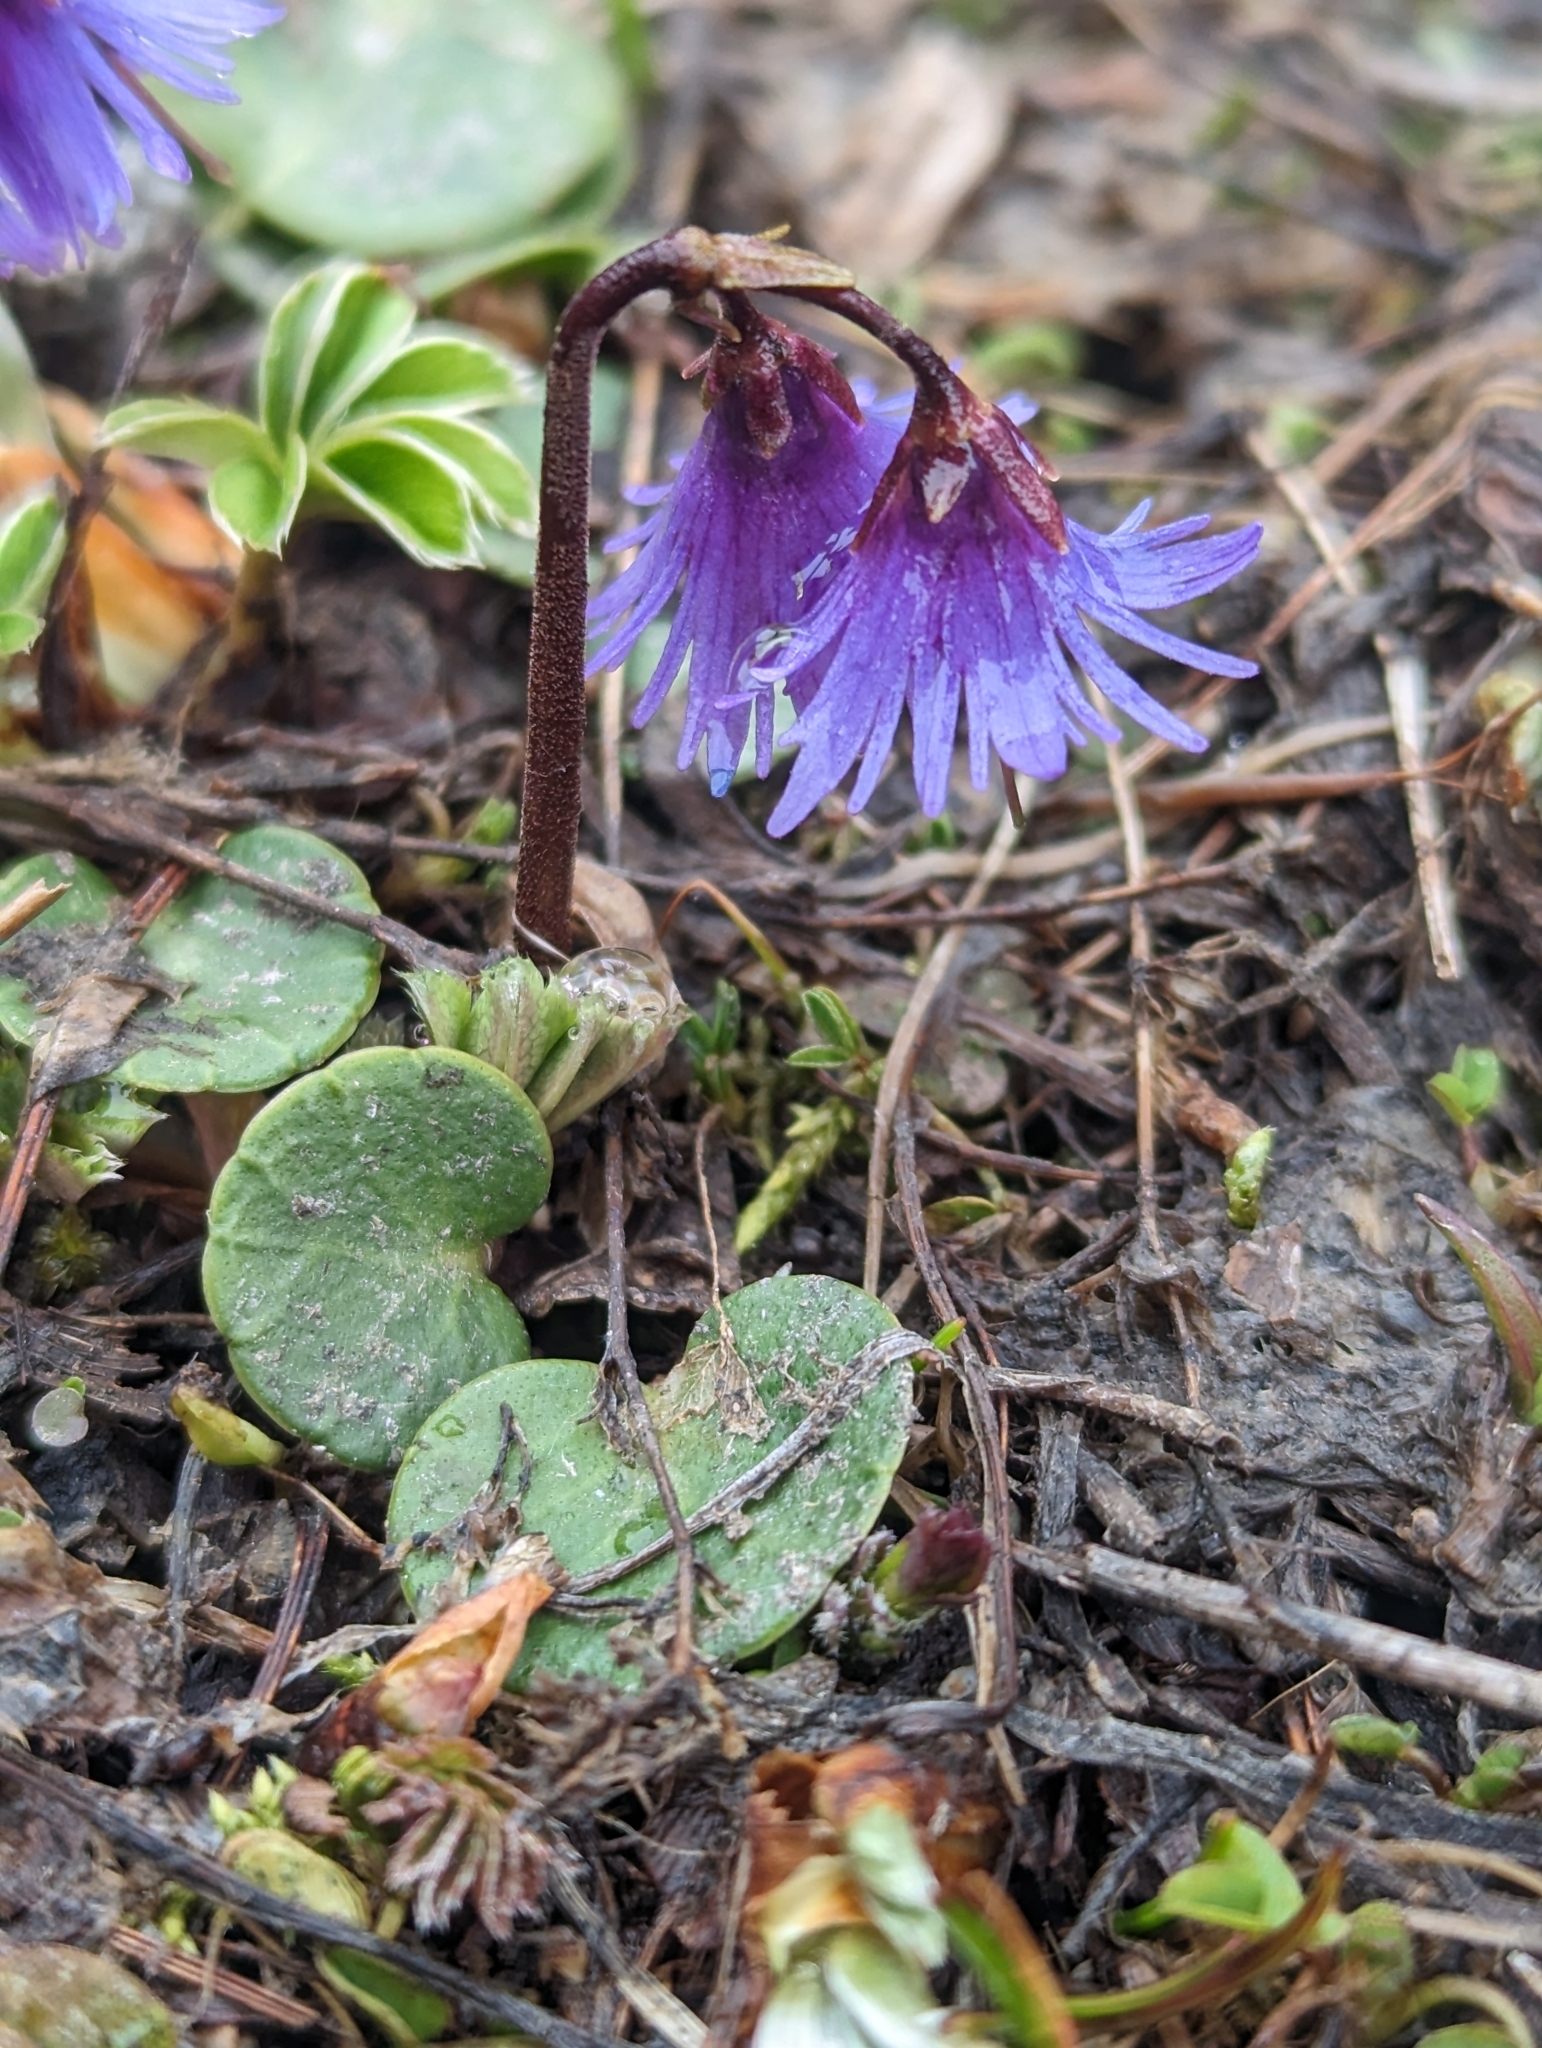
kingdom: Plantae
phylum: Tracheophyta
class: Magnoliopsida
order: Ericales
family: Primulaceae
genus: Soldanella
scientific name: Soldanella alpina
